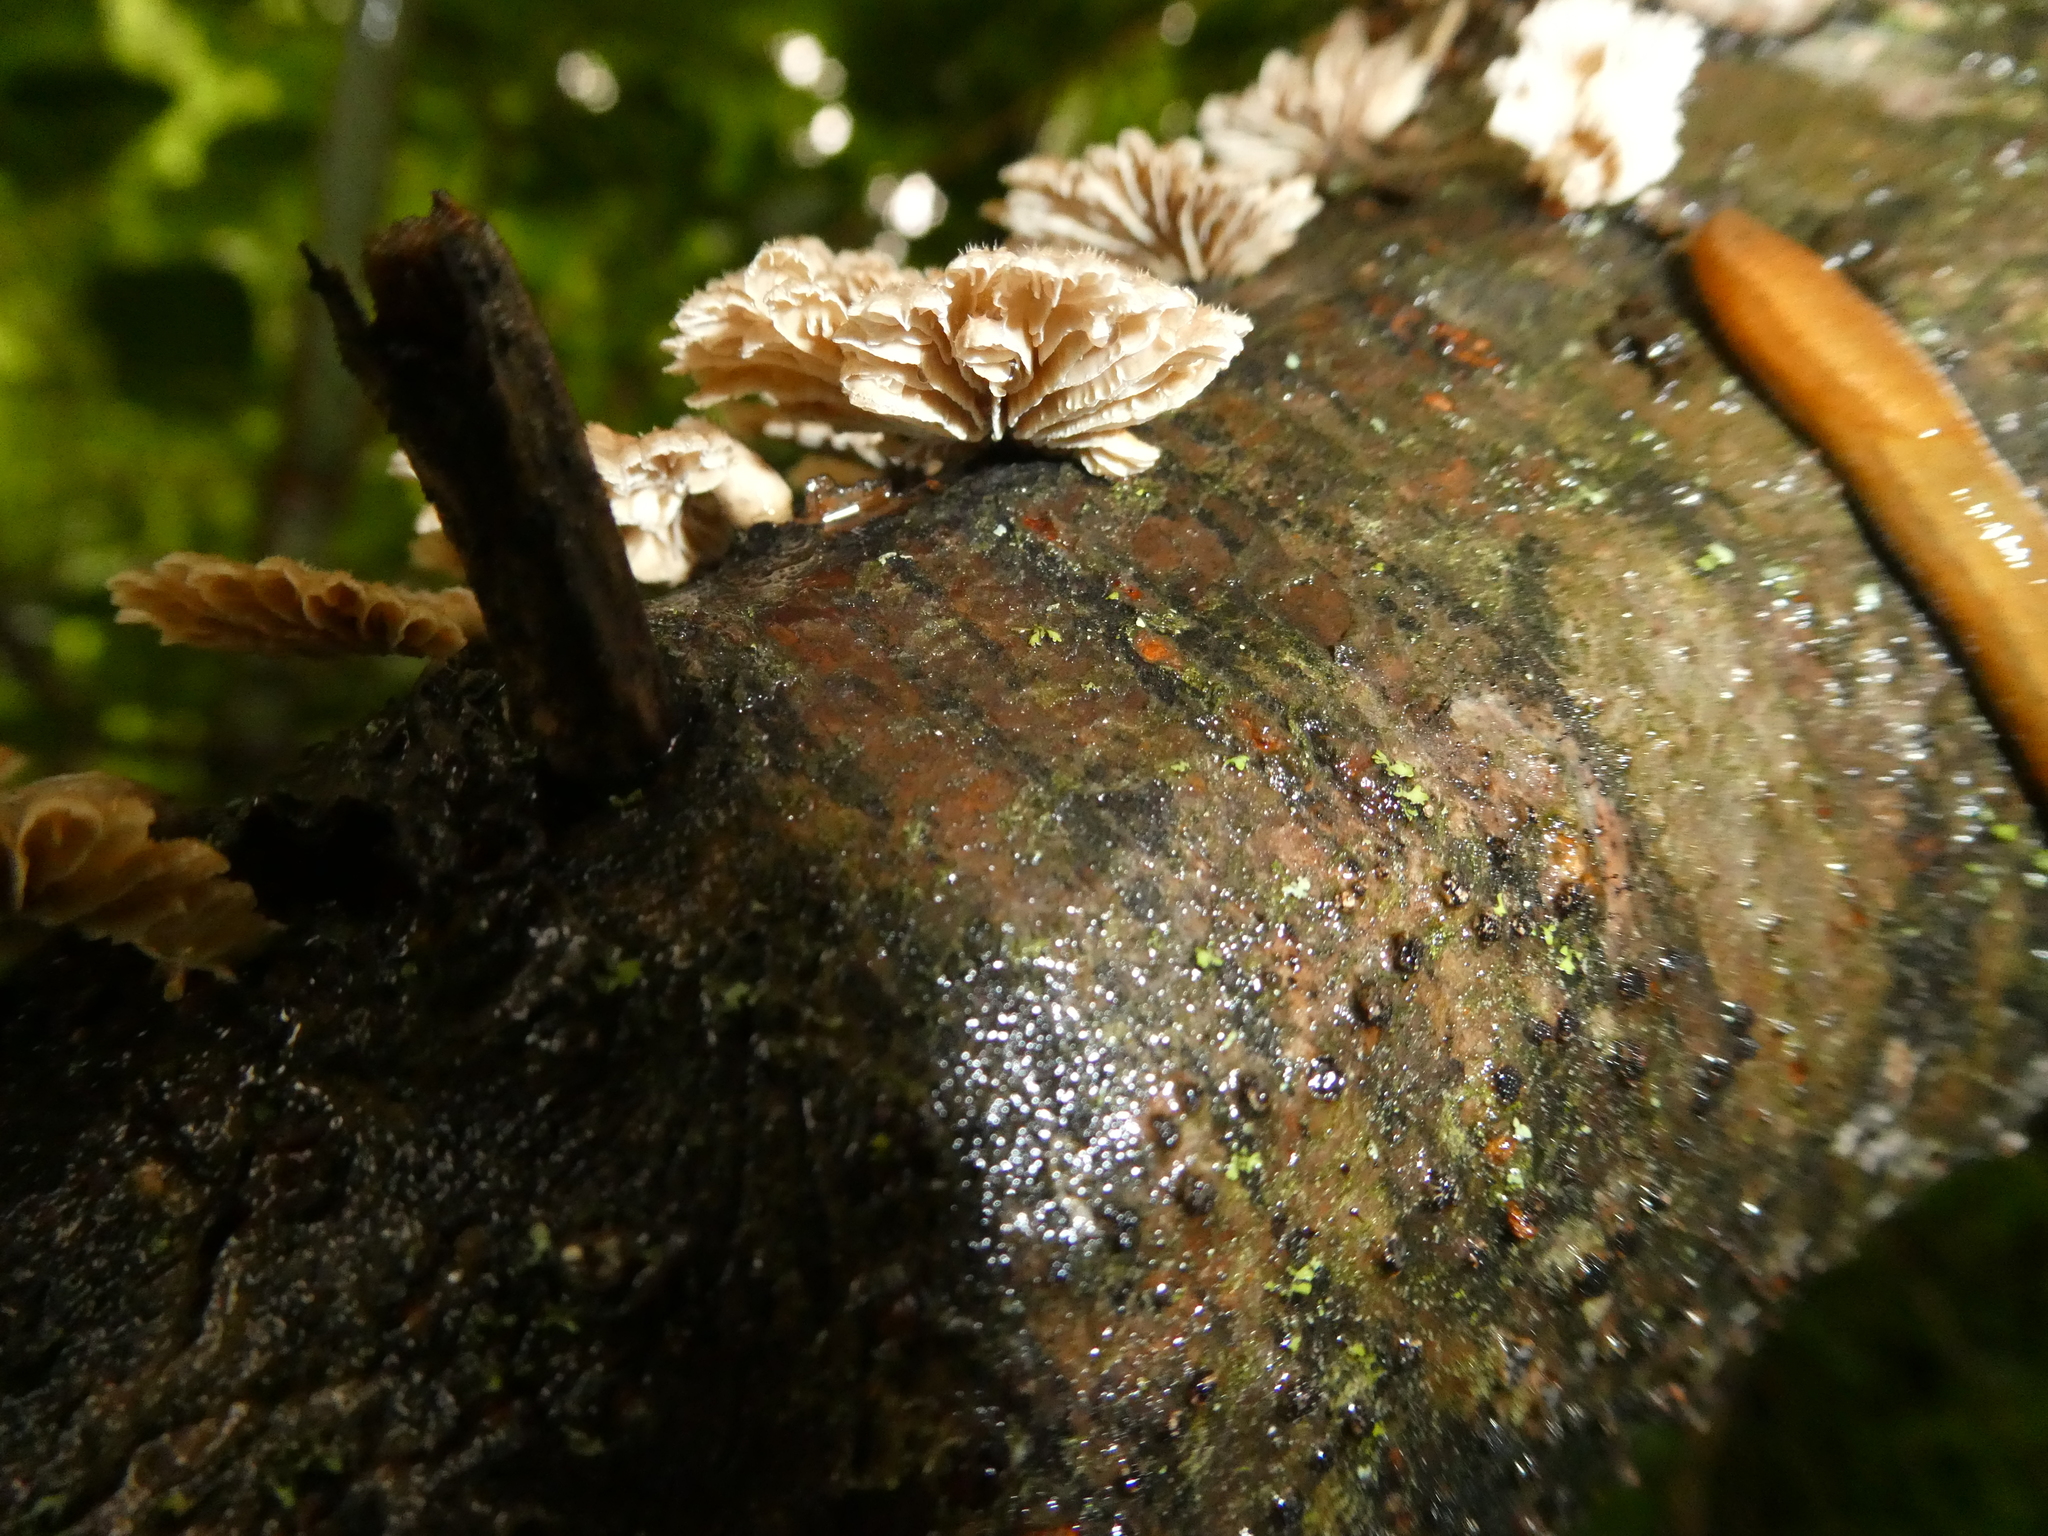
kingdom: Fungi
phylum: Basidiomycota
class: Agaricomycetes
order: Agaricales
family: Schizophyllaceae
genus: Schizophyllum
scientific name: Schizophyllum commune
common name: Common porecrust
